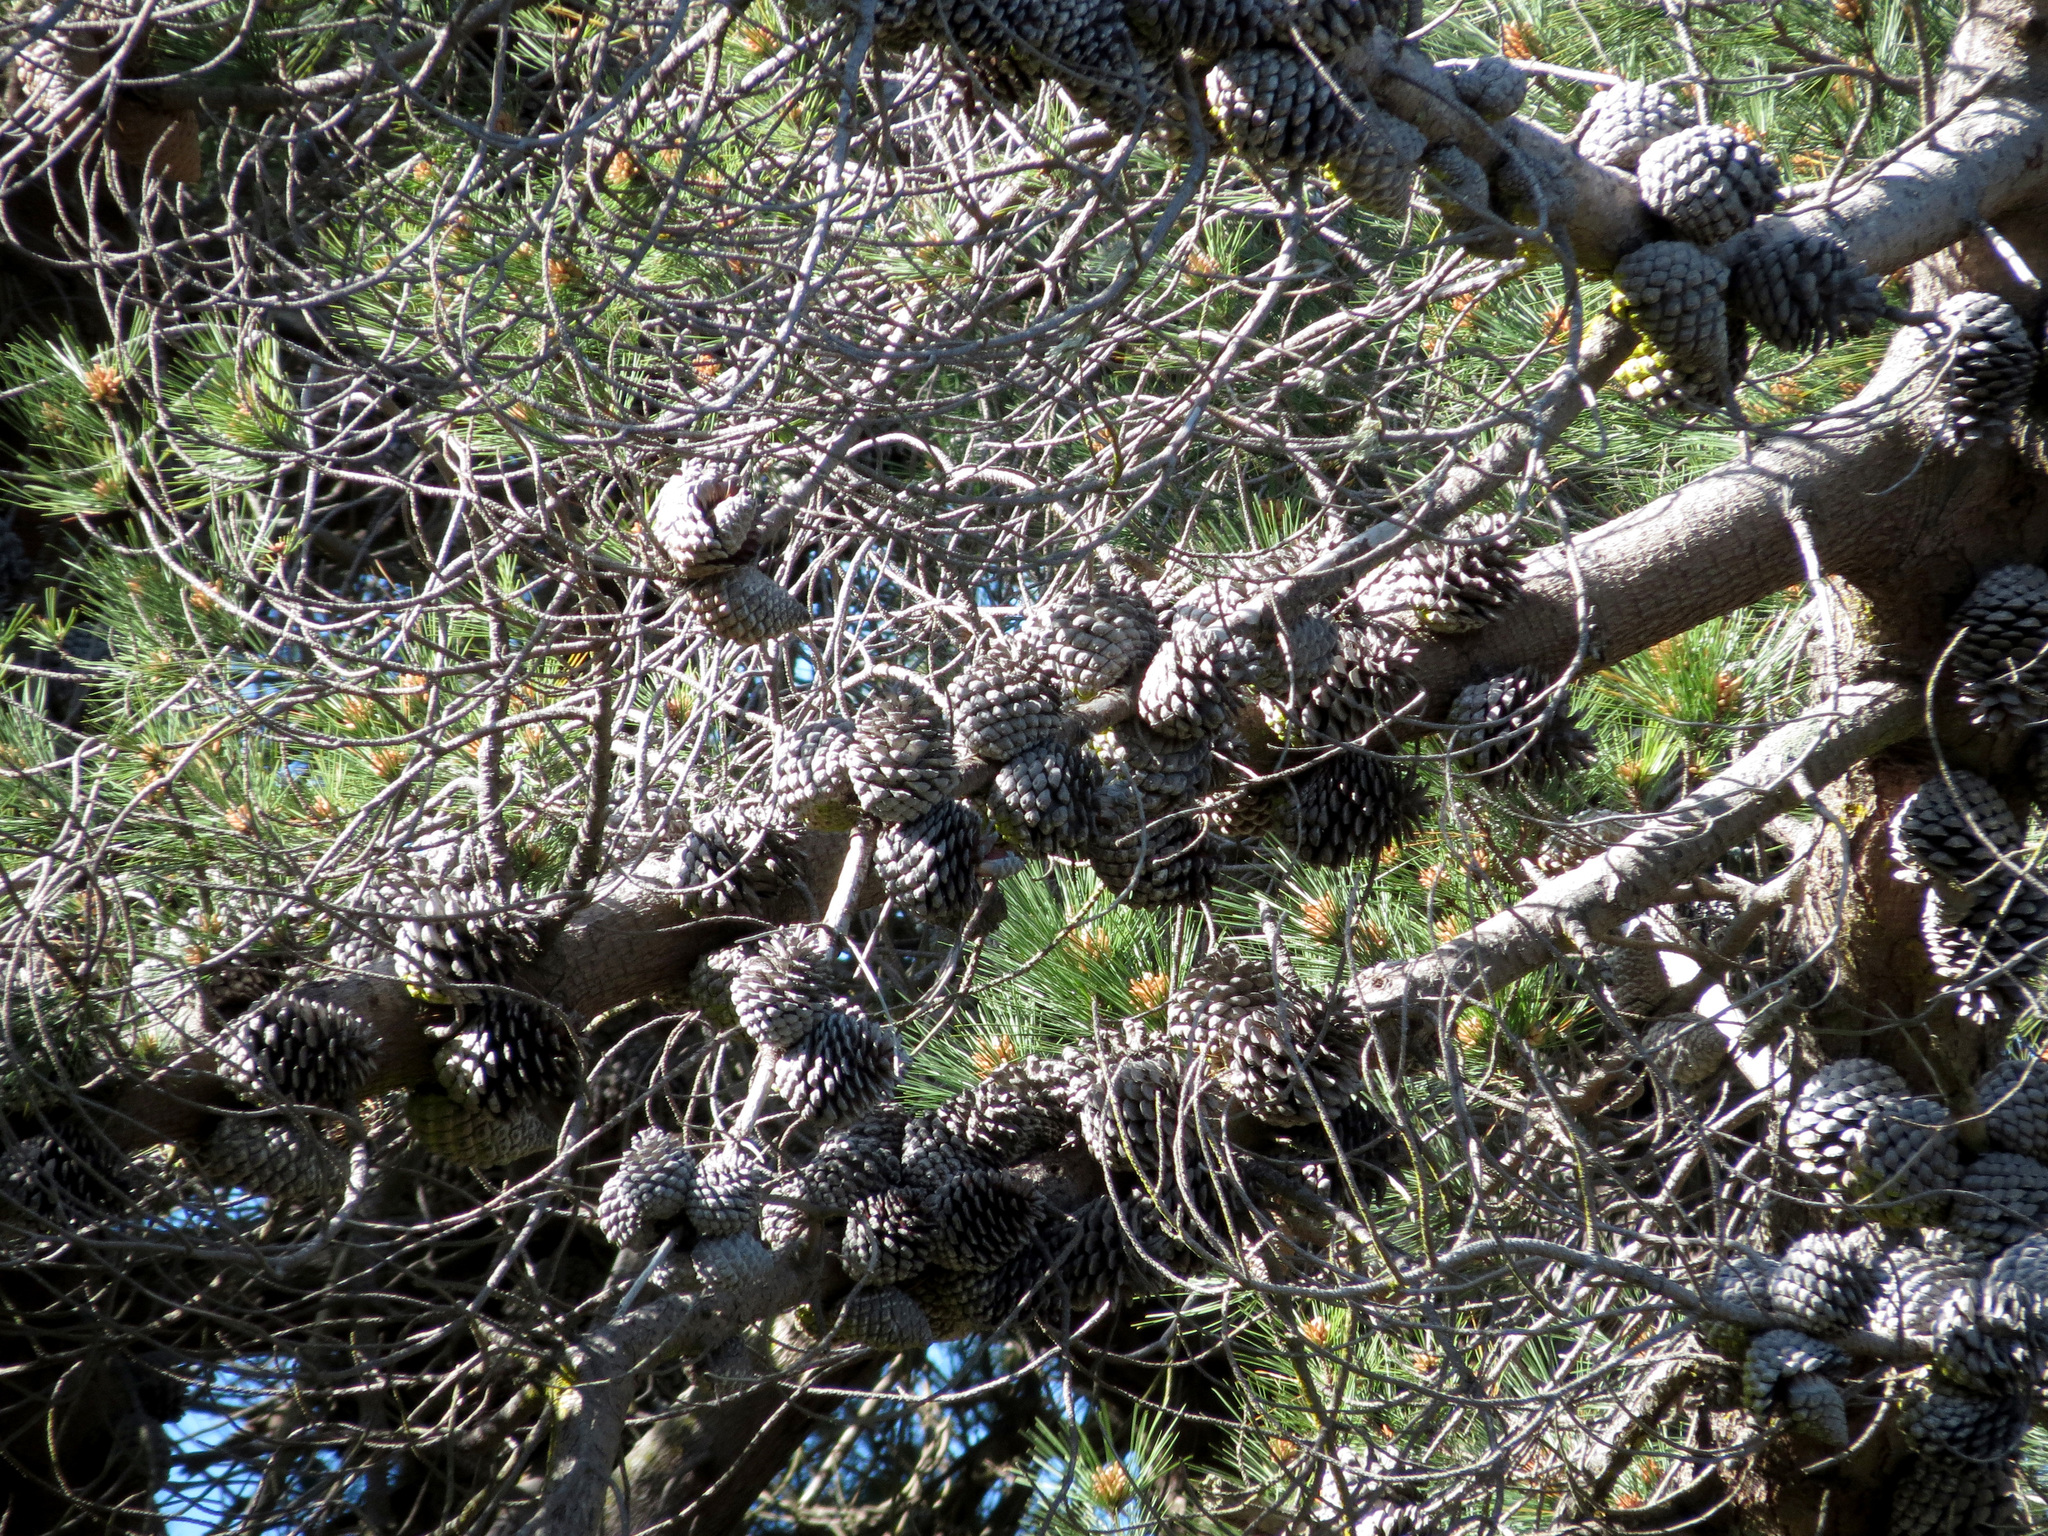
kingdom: Plantae
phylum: Tracheophyta
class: Pinopsida
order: Pinales
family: Pinaceae
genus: Pinus
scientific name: Pinus radiata
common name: Monterey pine
